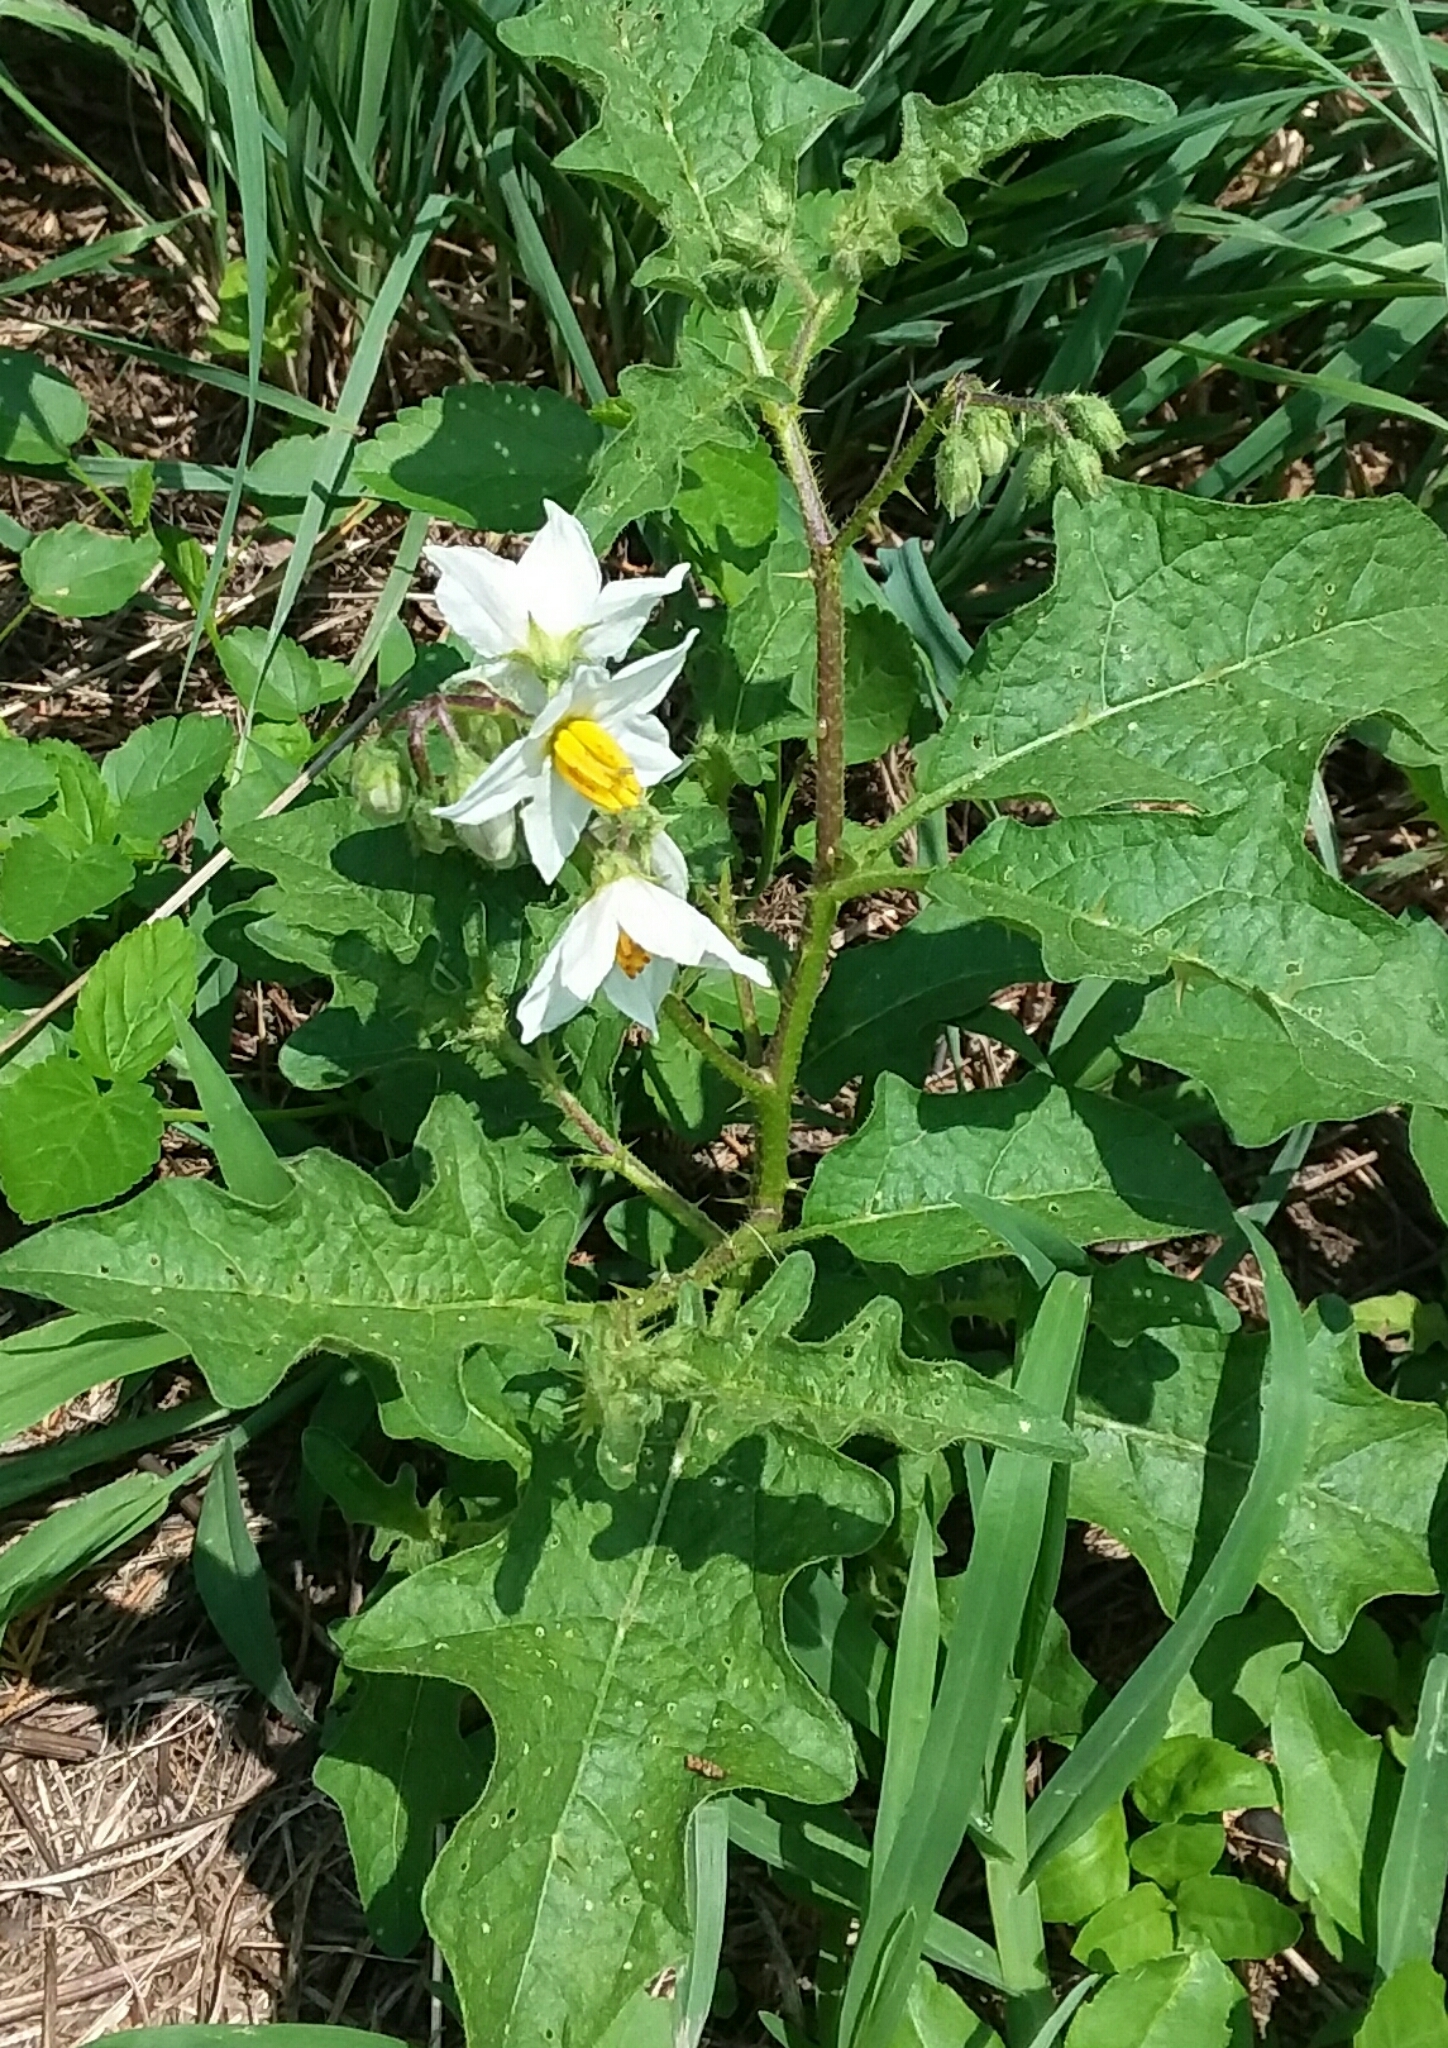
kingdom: Plantae
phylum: Tracheophyta
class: Magnoliopsida
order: Solanales
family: Solanaceae
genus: Solanum
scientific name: Solanum carolinense
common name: Horse-nettle
